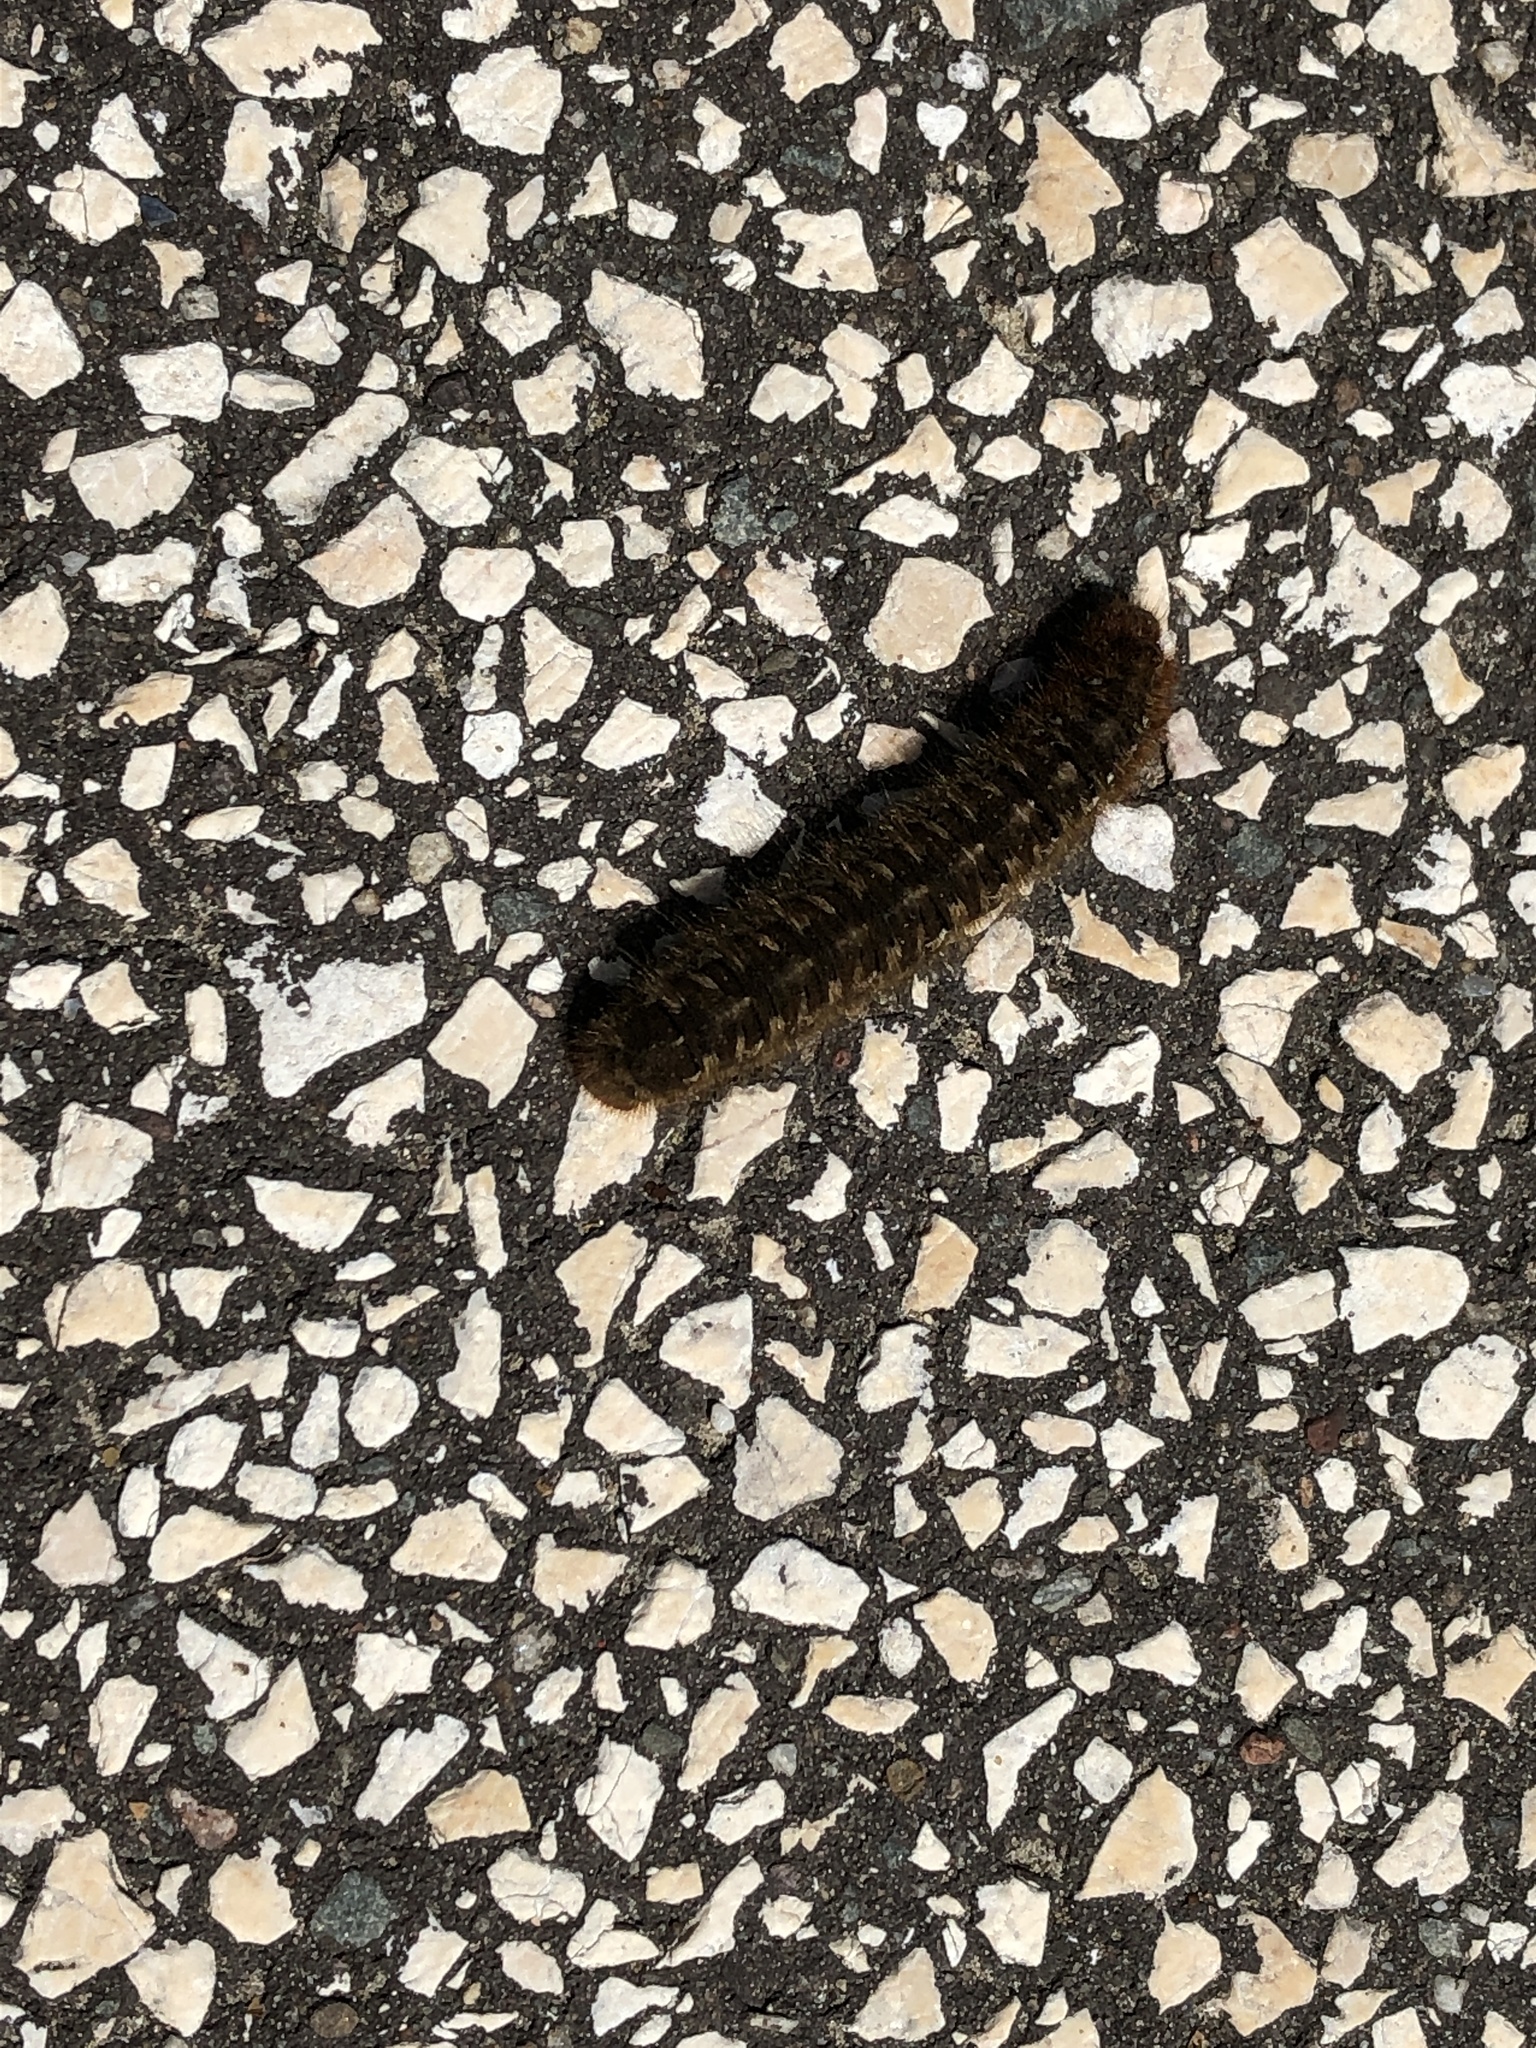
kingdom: Animalia
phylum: Arthropoda
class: Insecta
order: Lepidoptera
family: Lasiocampidae
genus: Lasiocampa
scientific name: Lasiocampa quercus
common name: Oak eggar
